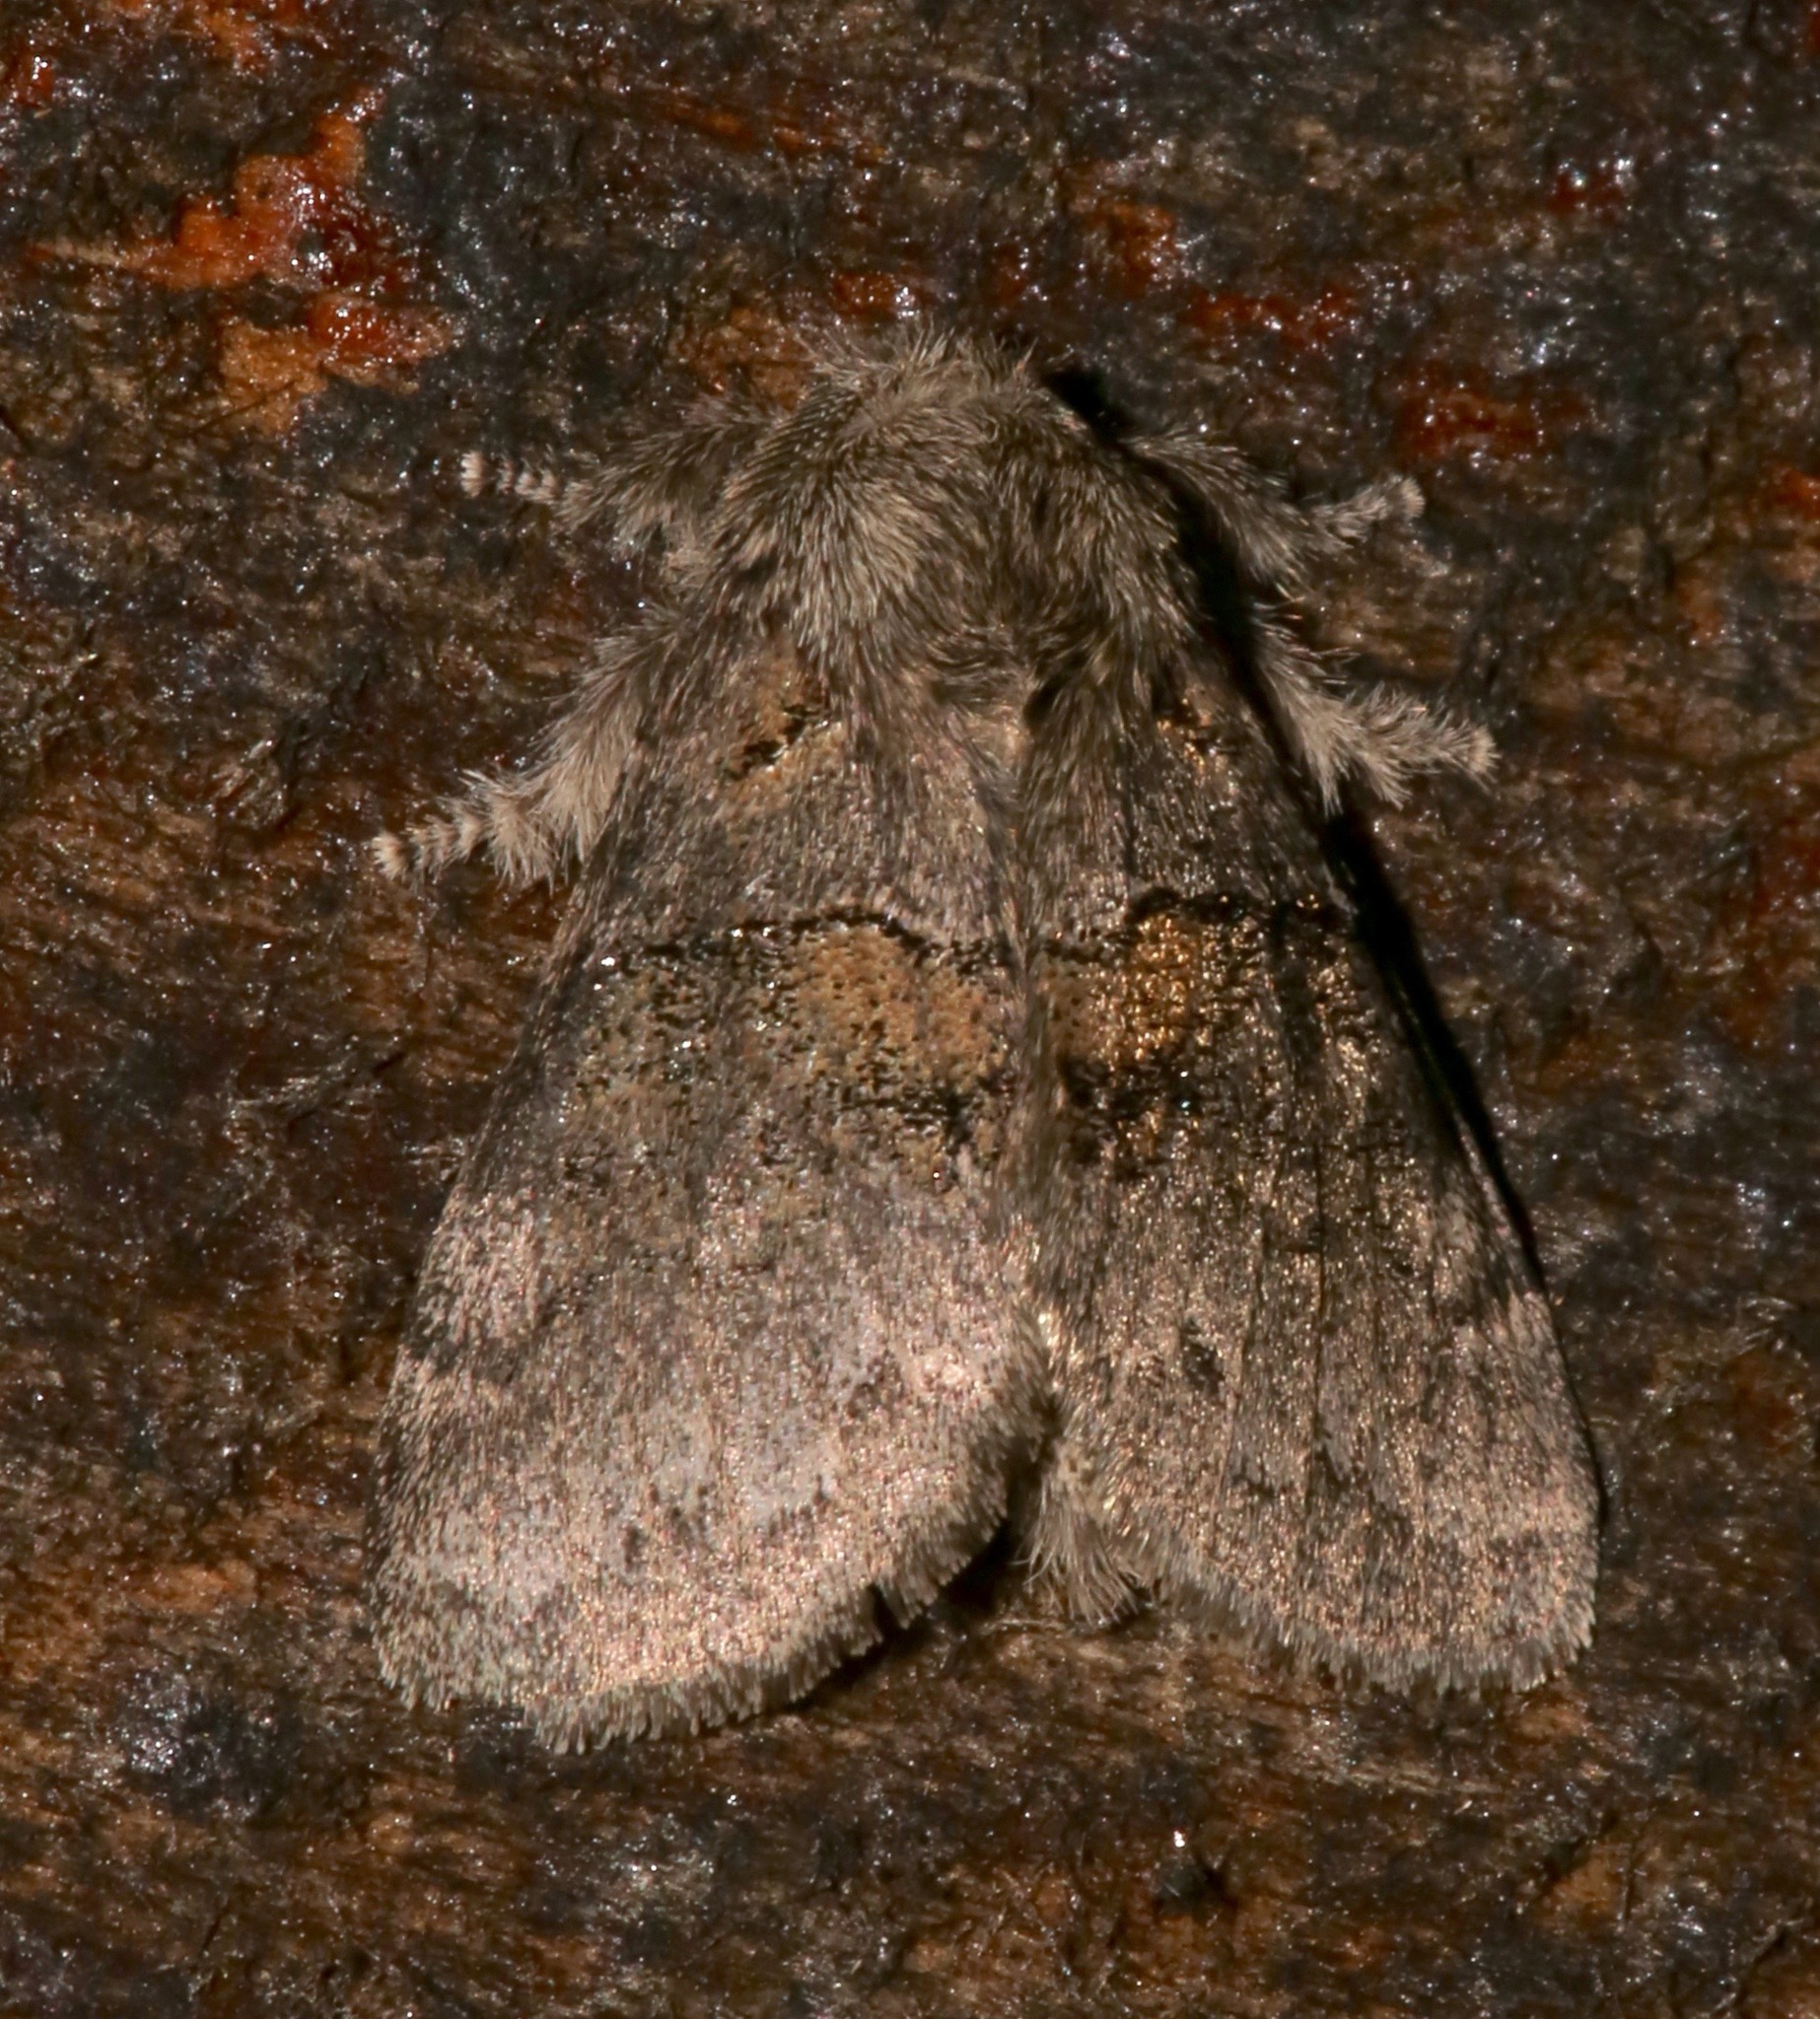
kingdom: Animalia
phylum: Arthropoda
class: Insecta
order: Lepidoptera
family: Notodontidae
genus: Gluphisia
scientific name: Gluphisia septentrionis
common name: Common gluphisia
